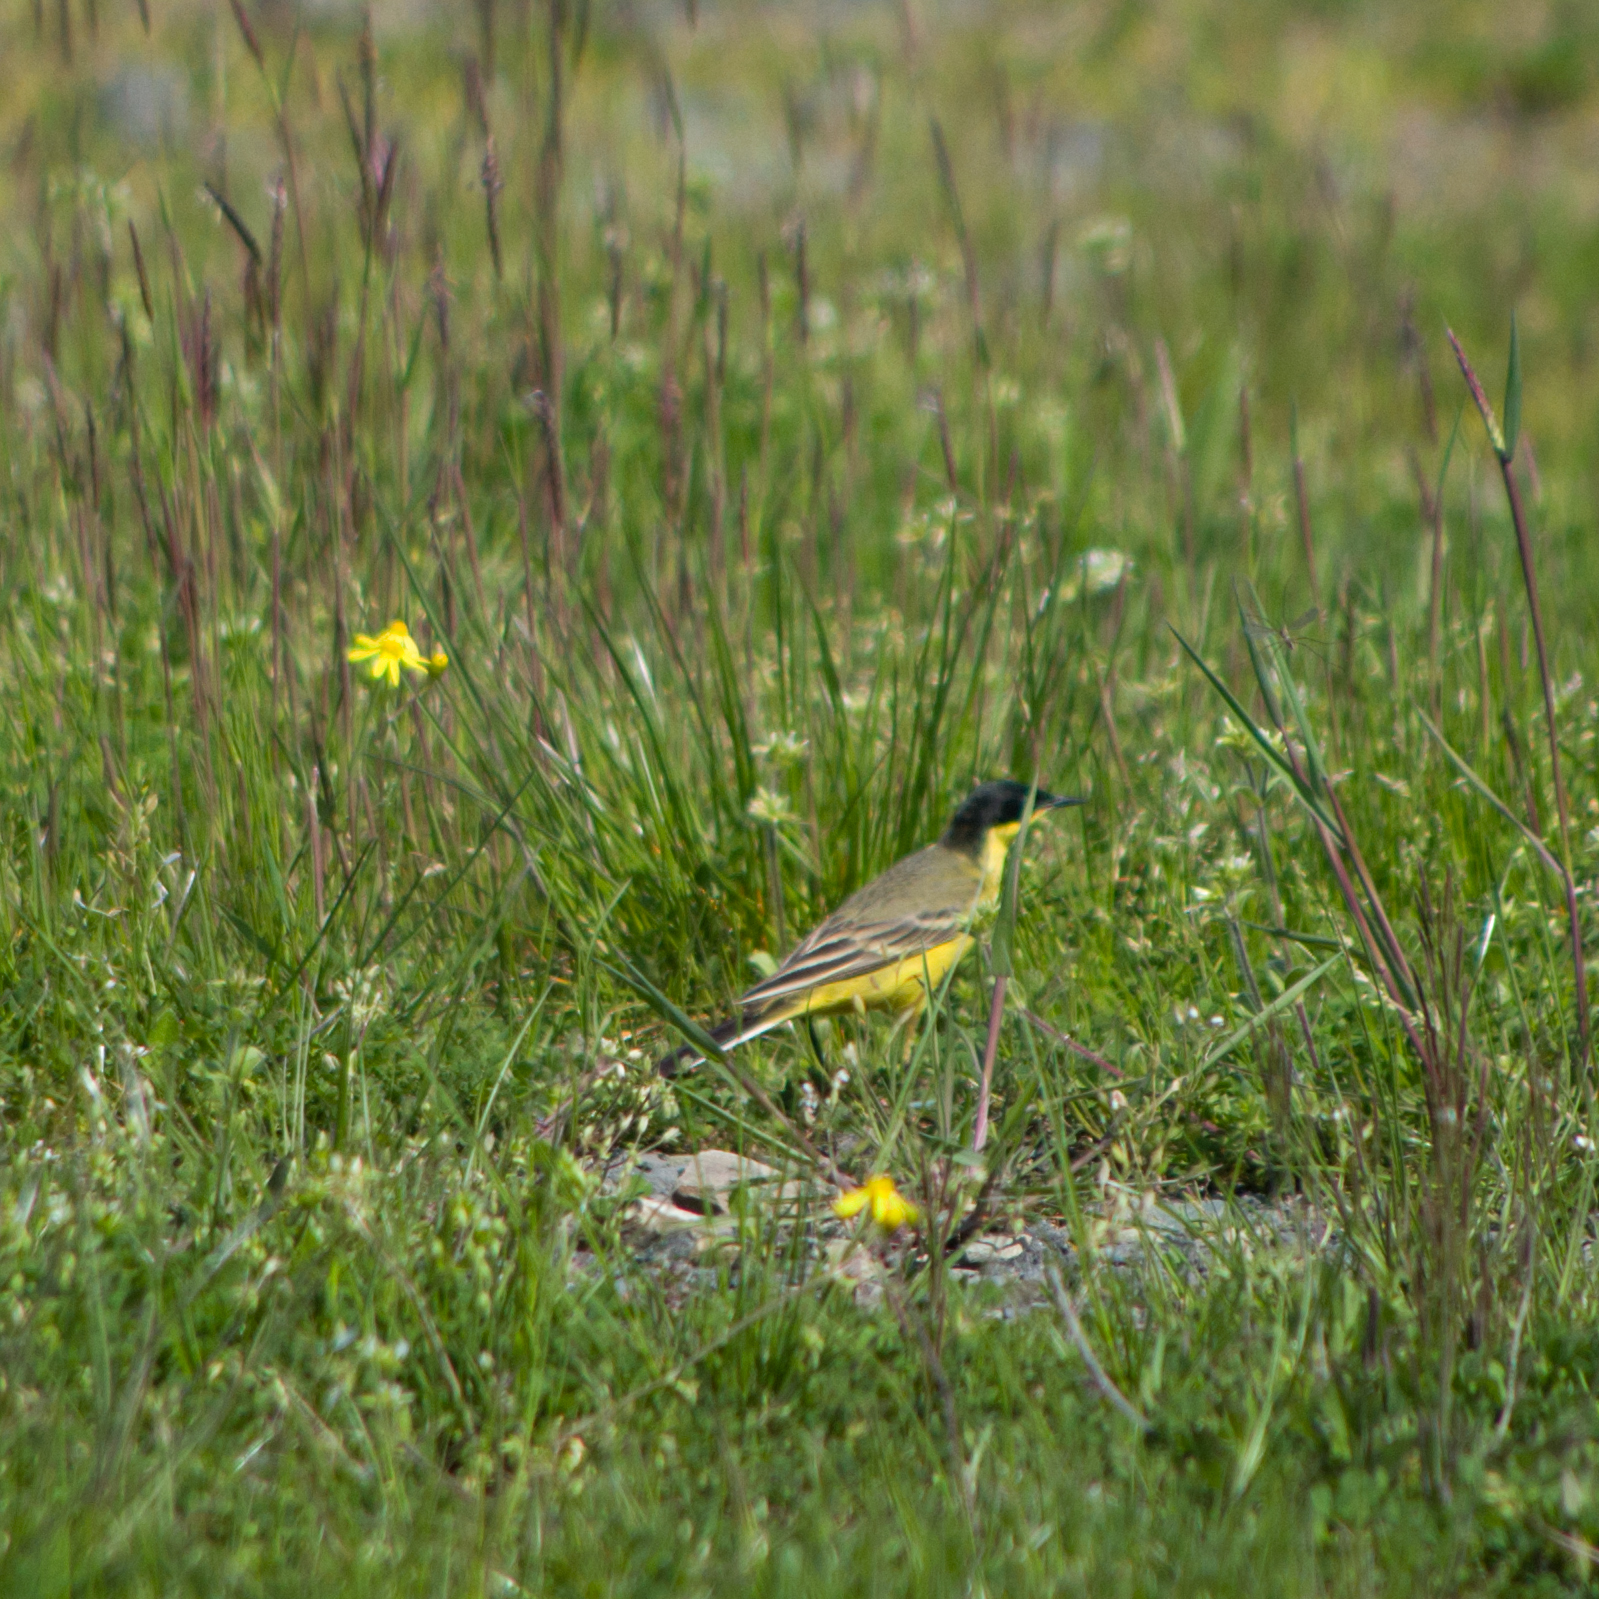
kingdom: Animalia
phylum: Chordata
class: Aves
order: Passeriformes
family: Motacillidae
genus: Motacilla
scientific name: Motacilla flava
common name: Western yellow wagtail
